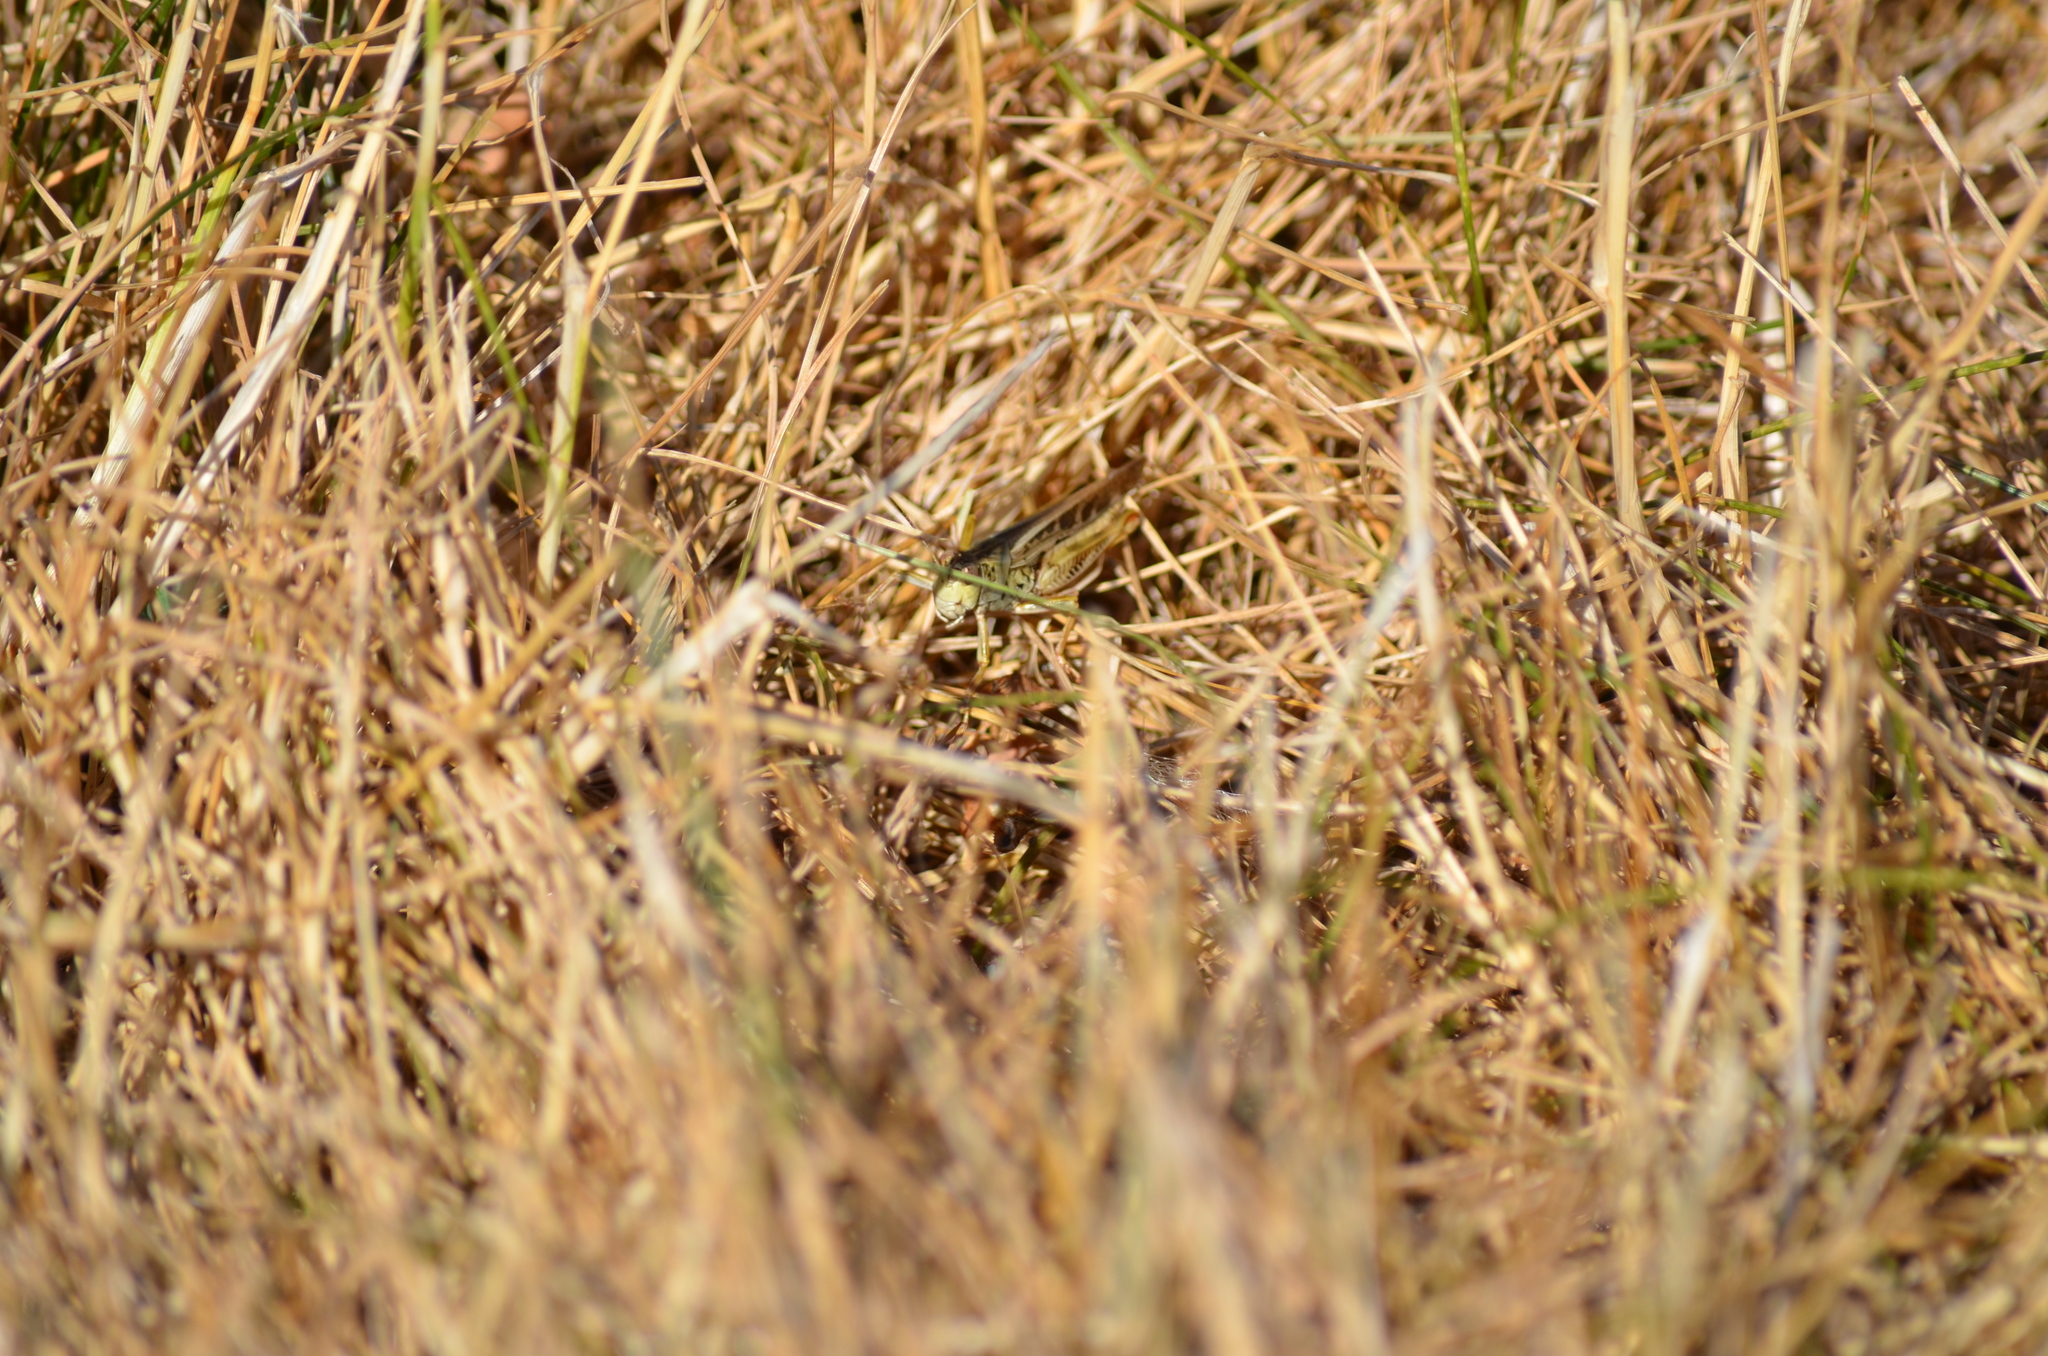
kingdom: Animalia
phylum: Arthropoda
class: Insecta
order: Orthoptera
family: Acrididae
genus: Camnula
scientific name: Camnula pellucida
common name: Clear-winged grasshopper
